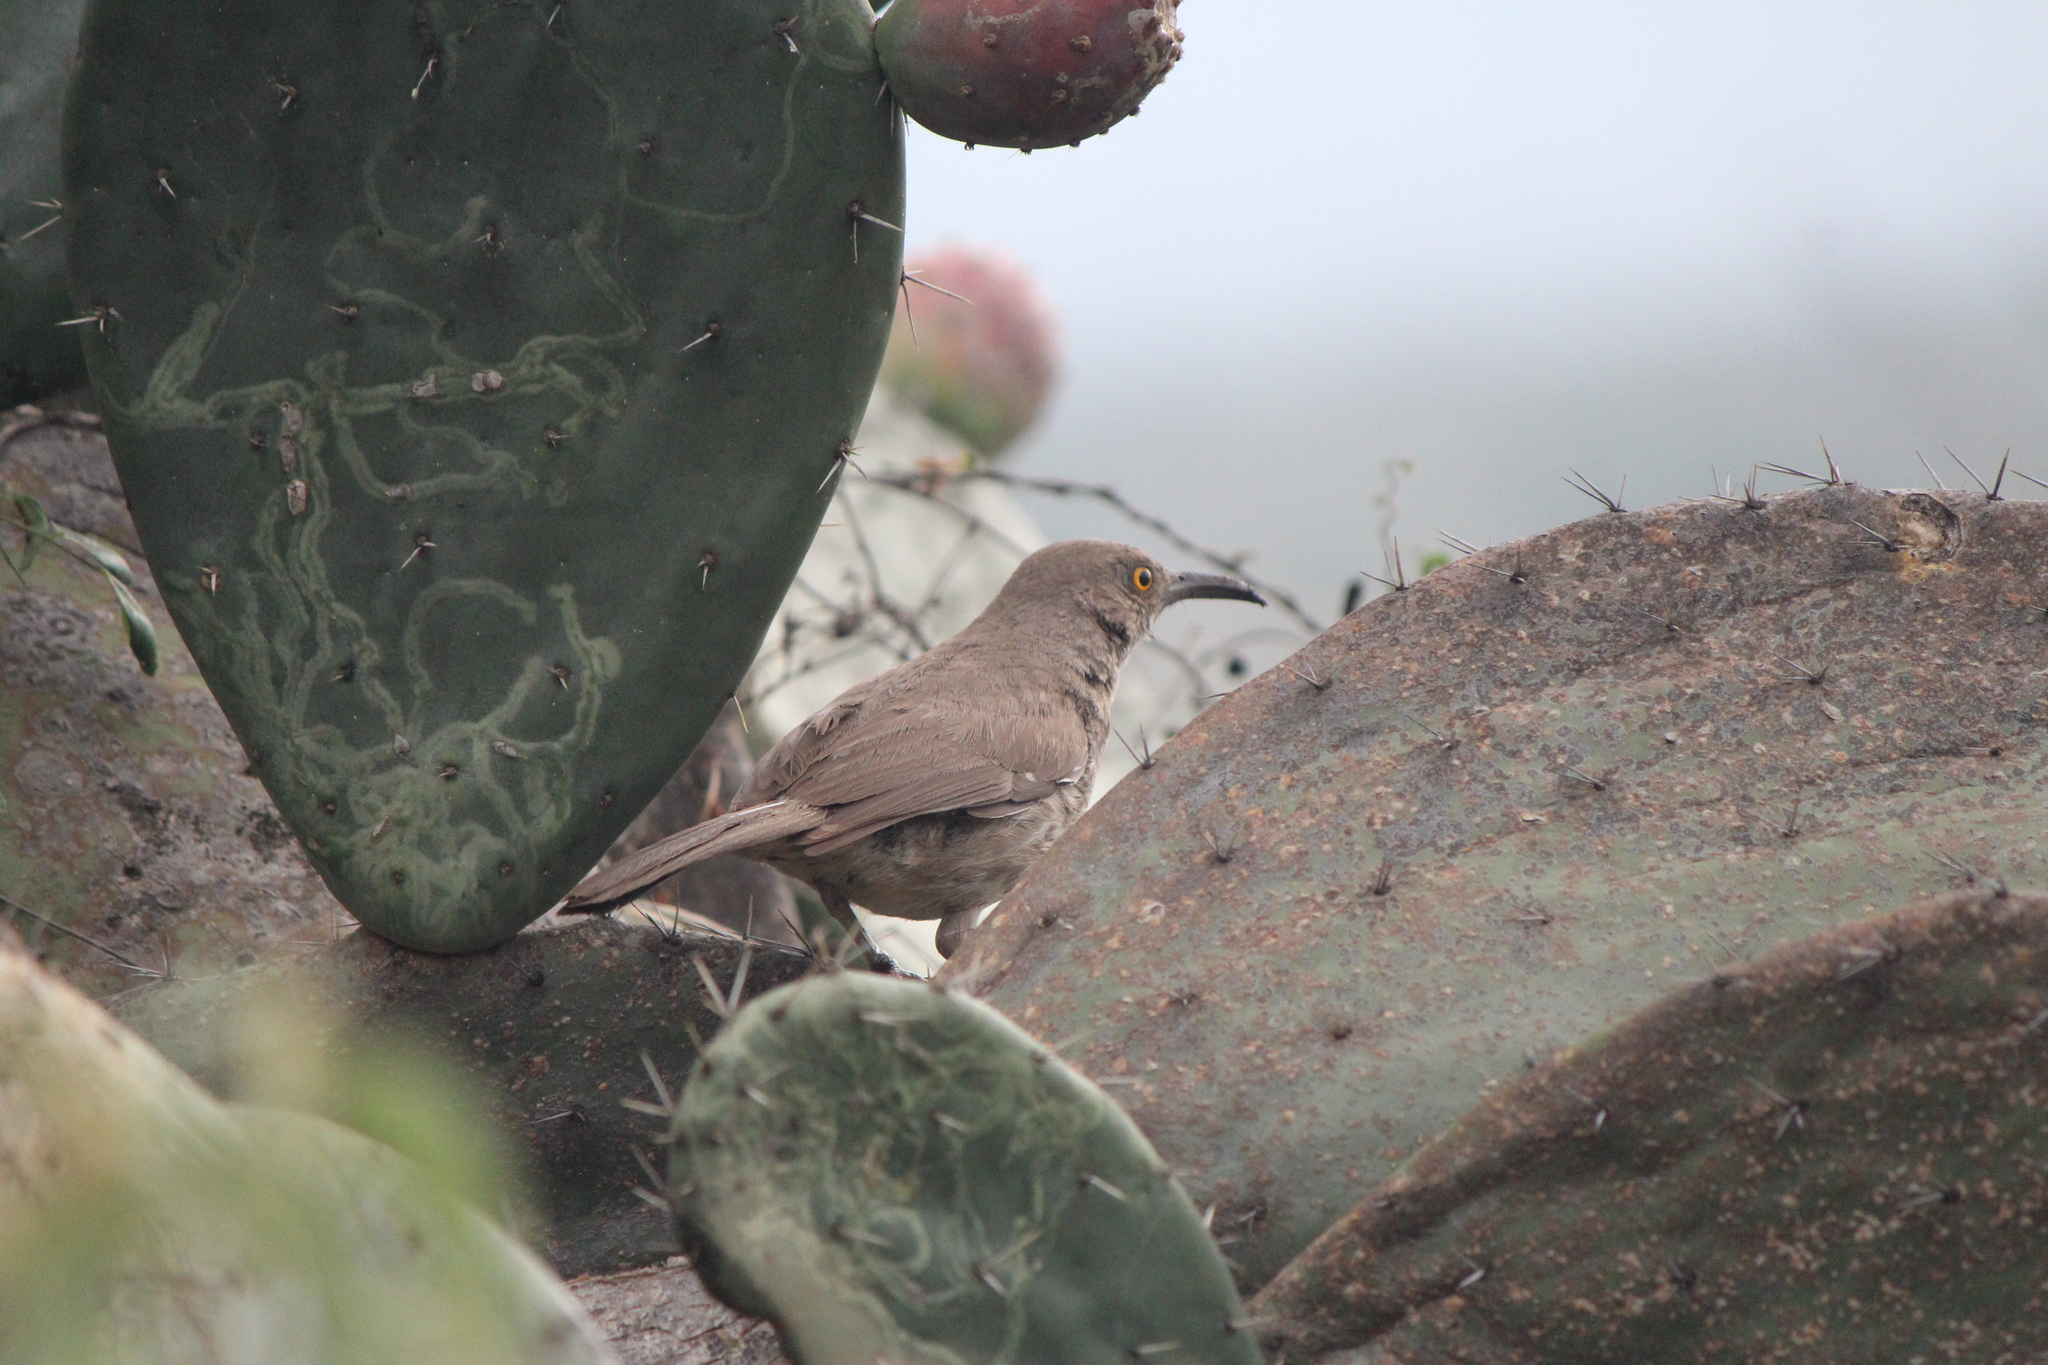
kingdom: Animalia
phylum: Chordata
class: Aves
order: Passeriformes
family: Mimidae
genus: Toxostoma
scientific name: Toxostoma curvirostre
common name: Curve-billed thrasher
